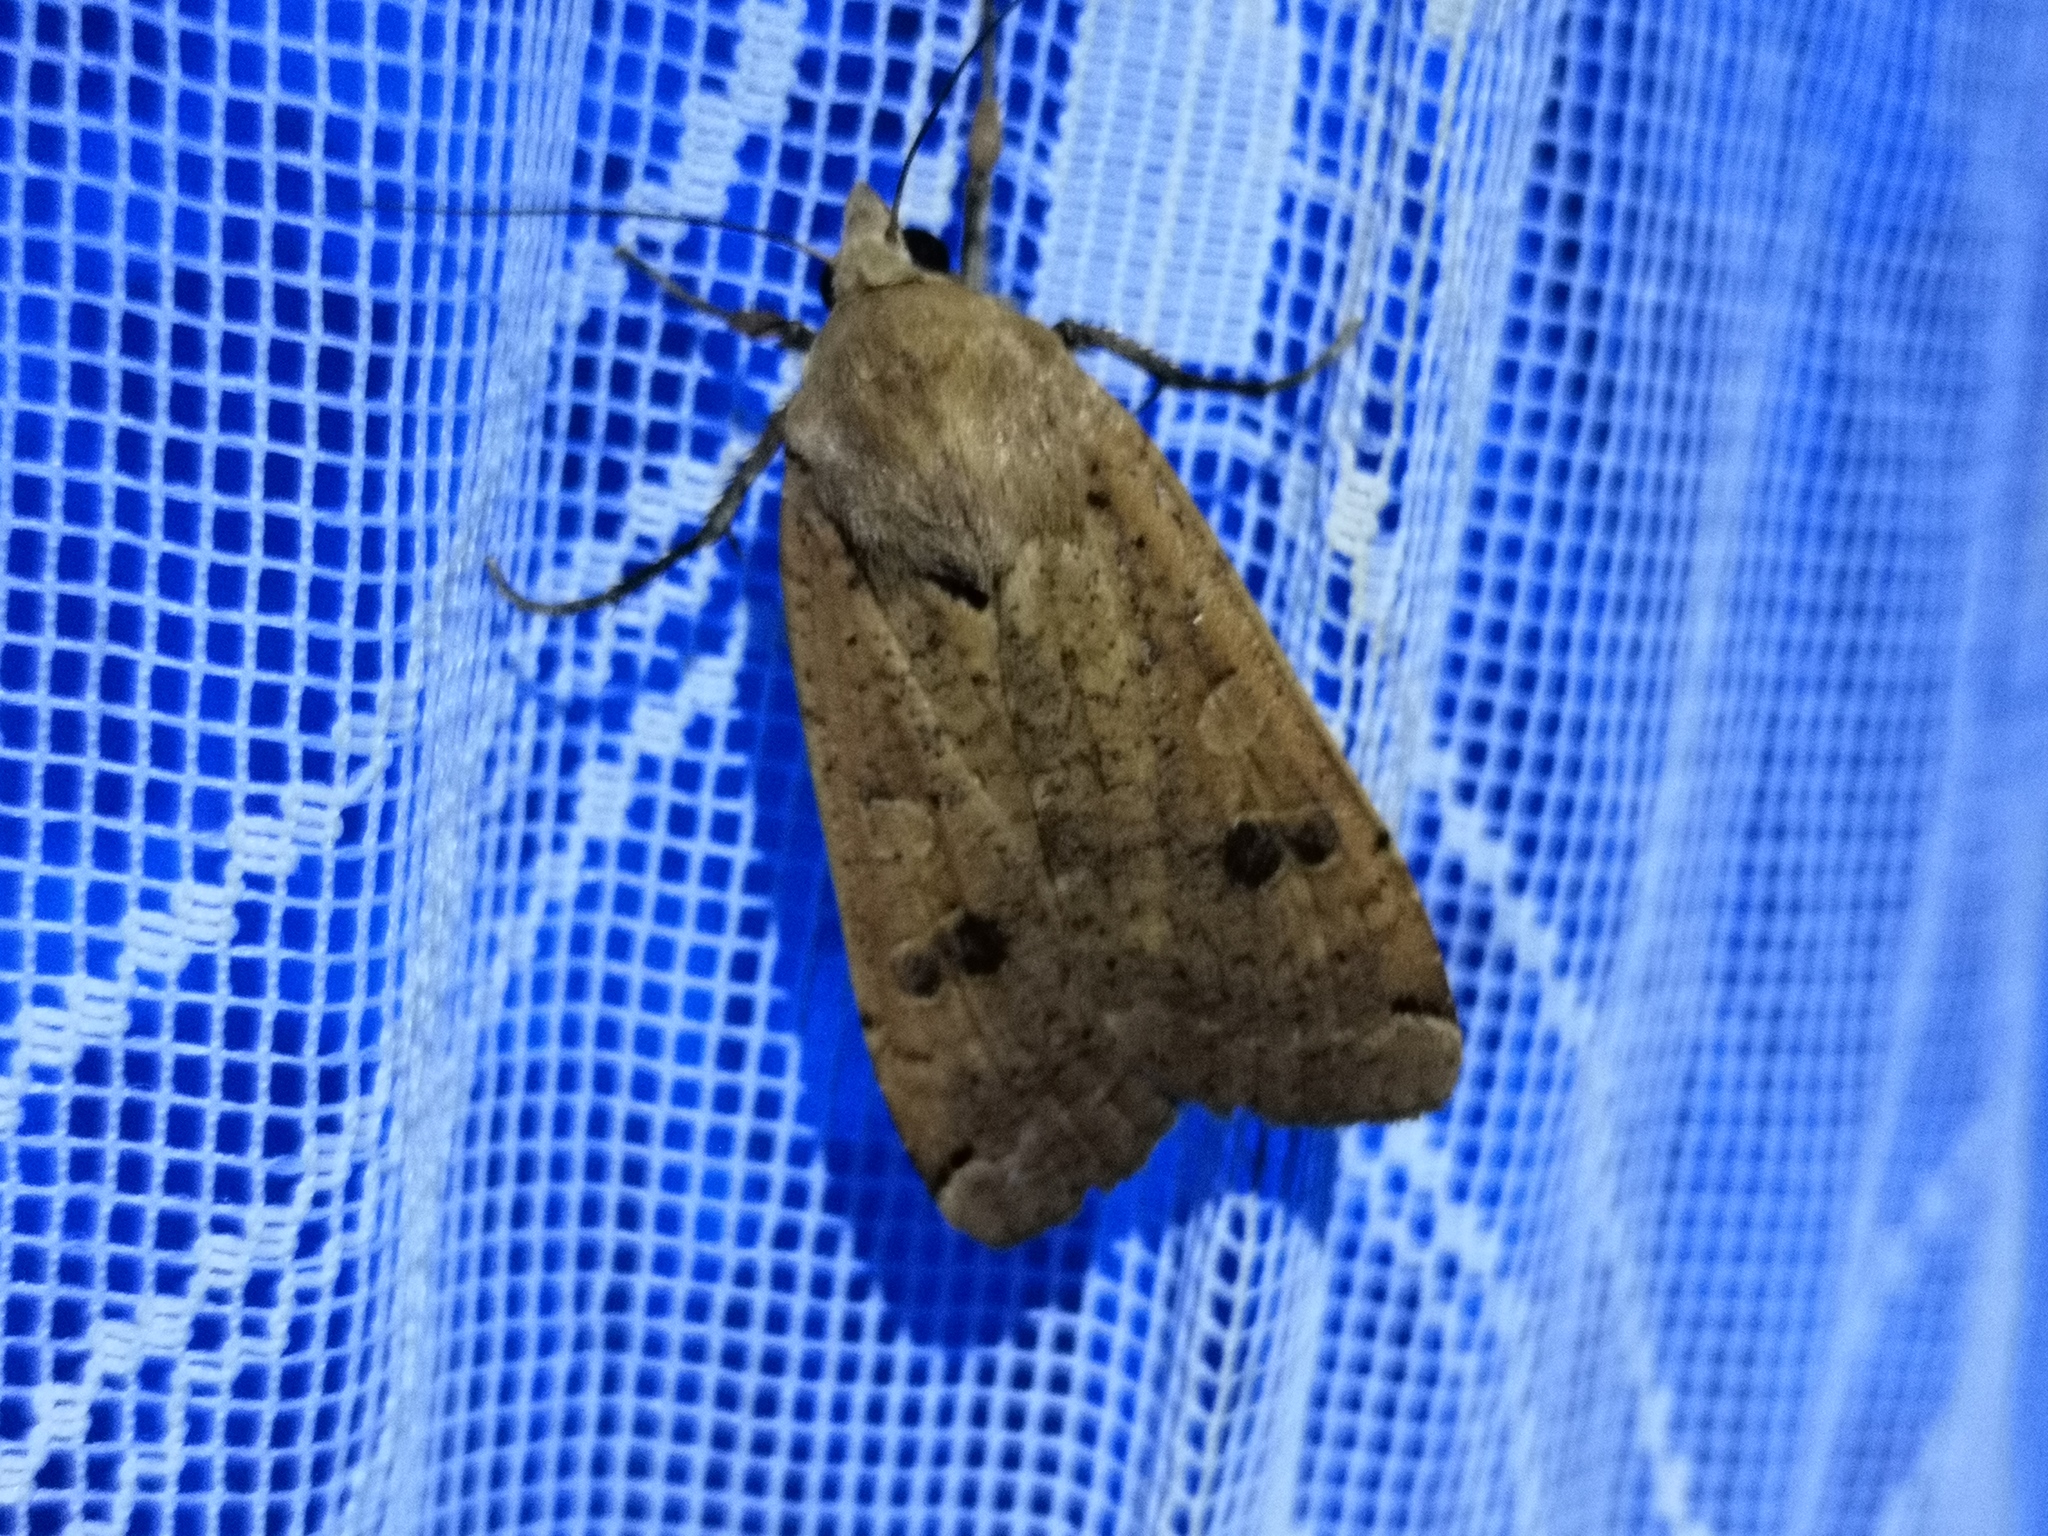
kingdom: Animalia
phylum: Arthropoda
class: Insecta
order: Lepidoptera
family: Noctuidae
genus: Noctua
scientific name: Noctua pronuba
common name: Large yellow underwing
